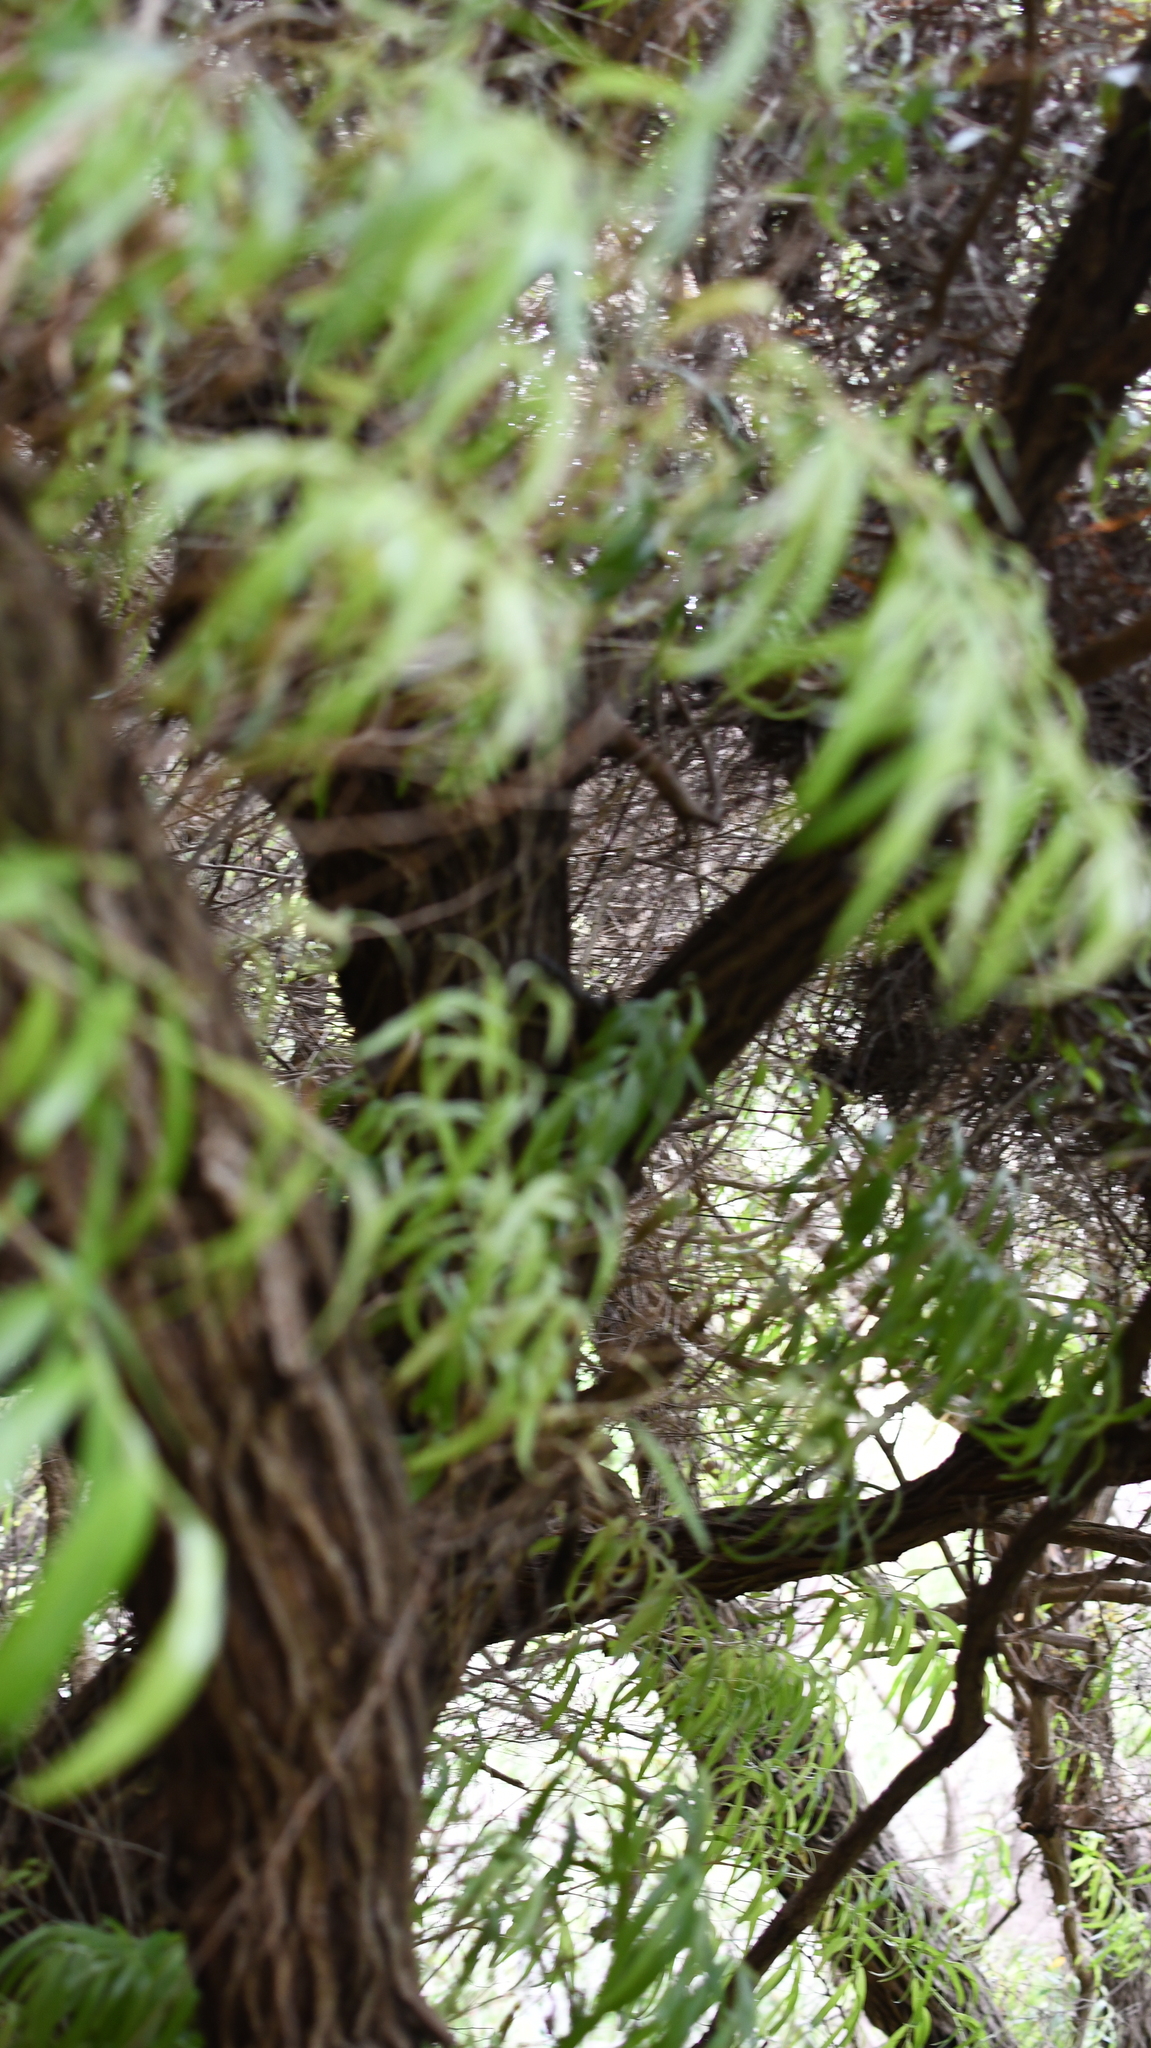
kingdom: Animalia
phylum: Chordata
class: Squamata
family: Pythonidae
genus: Morelia
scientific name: Morelia imbricata
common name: Carpet python
